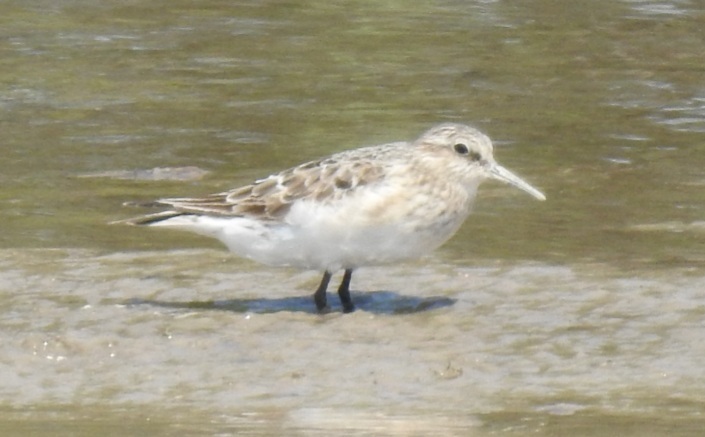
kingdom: Animalia
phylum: Chordata
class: Aves
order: Charadriiformes
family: Scolopacidae
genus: Calidris
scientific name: Calidris bairdii
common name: Baird's sandpiper
